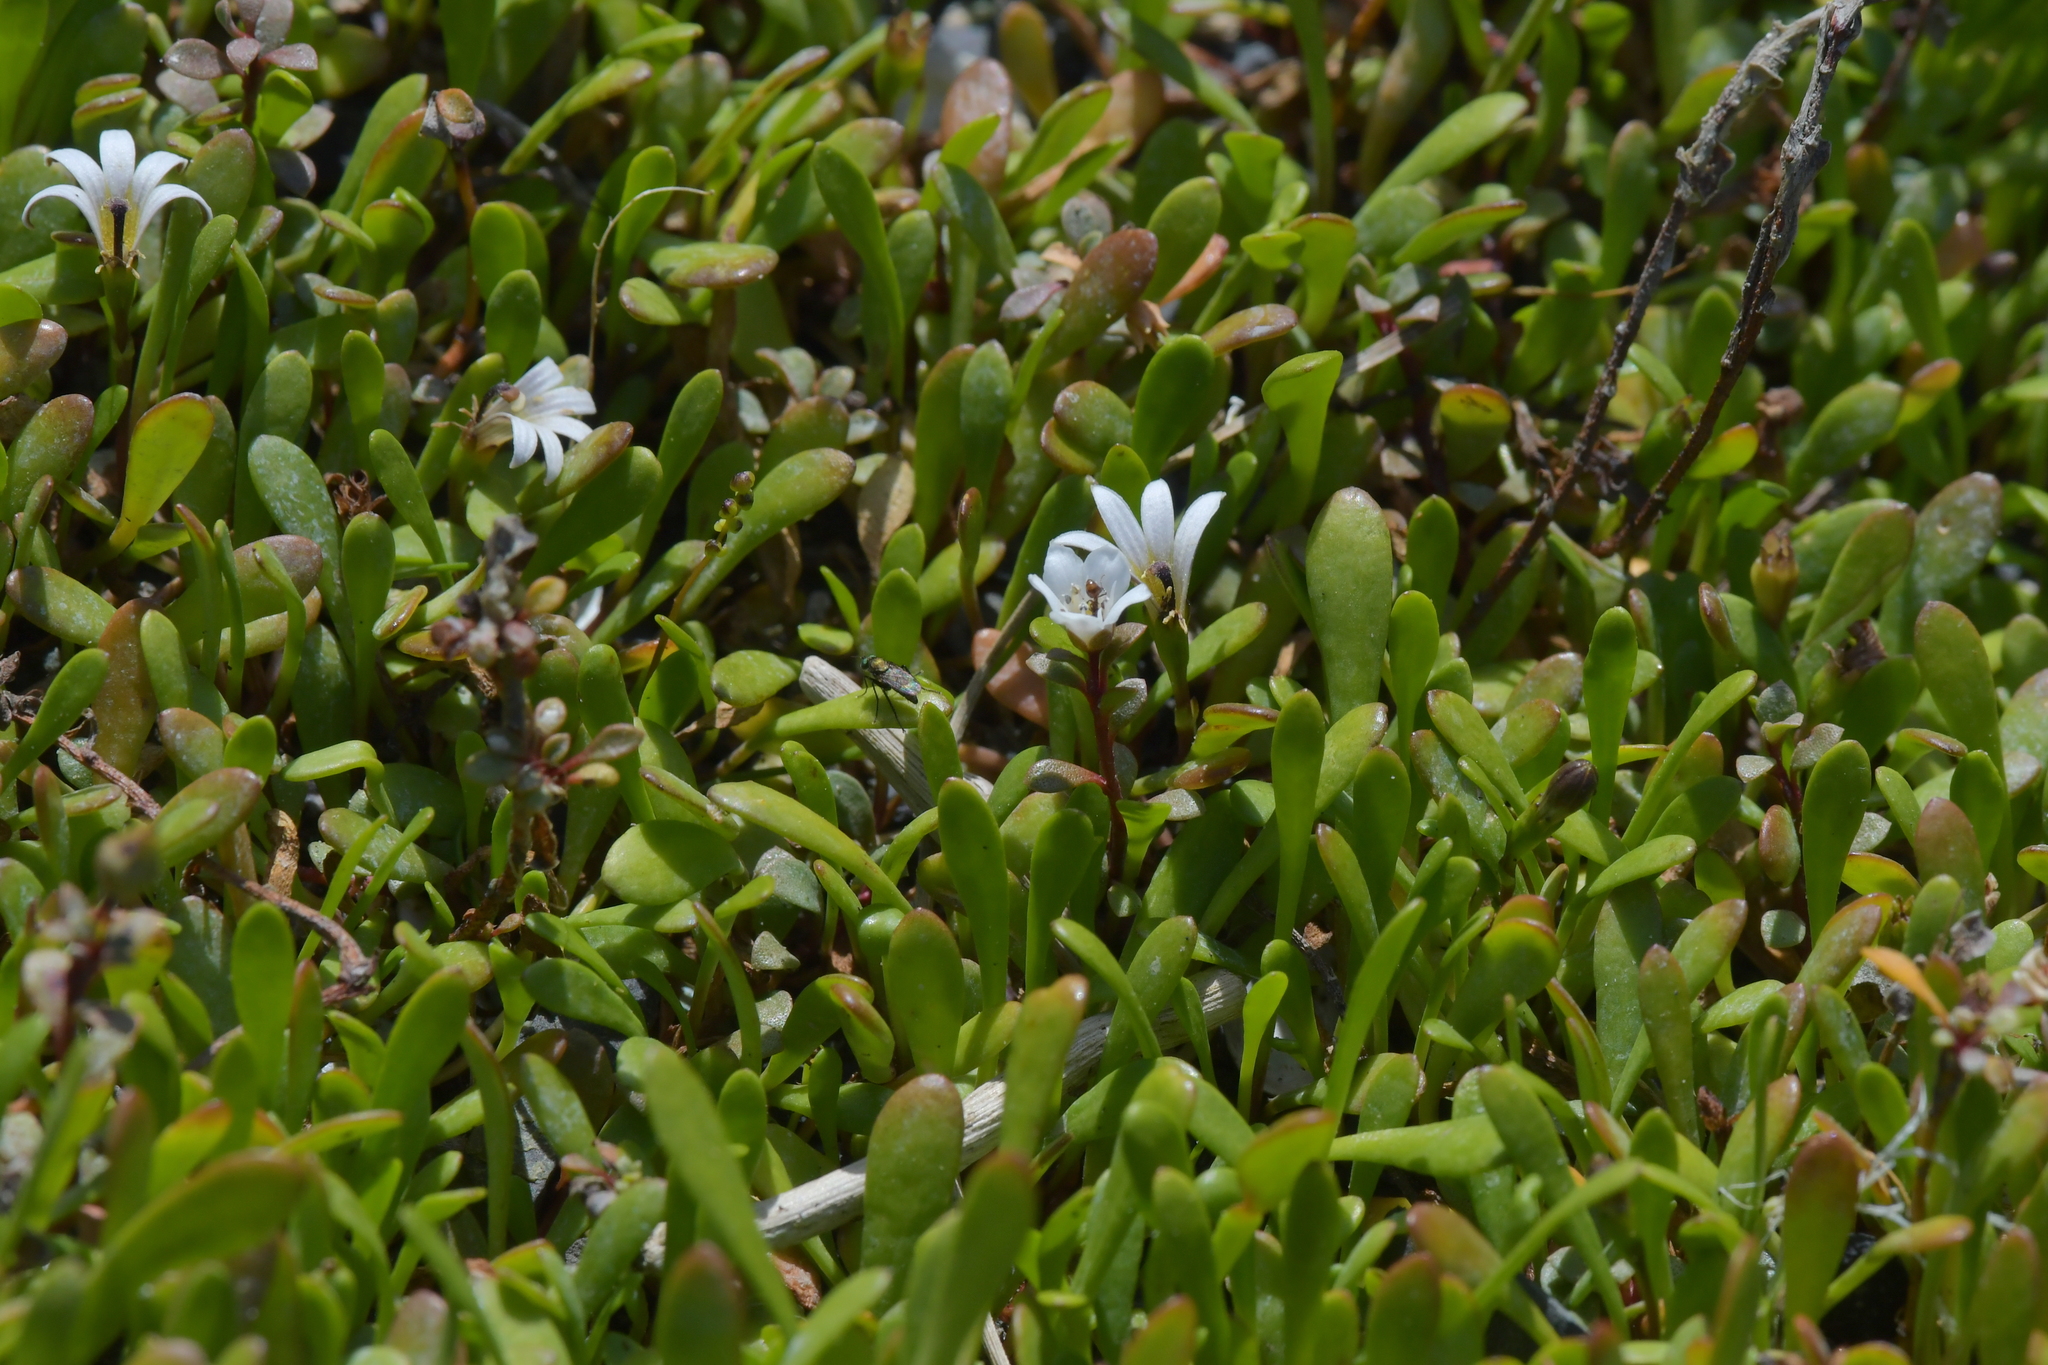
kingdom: Plantae
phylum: Tracheophyta
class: Magnoliopsida
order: Asterales
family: Goodeniaceae
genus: Goodenia
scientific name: Goodenia radicans
